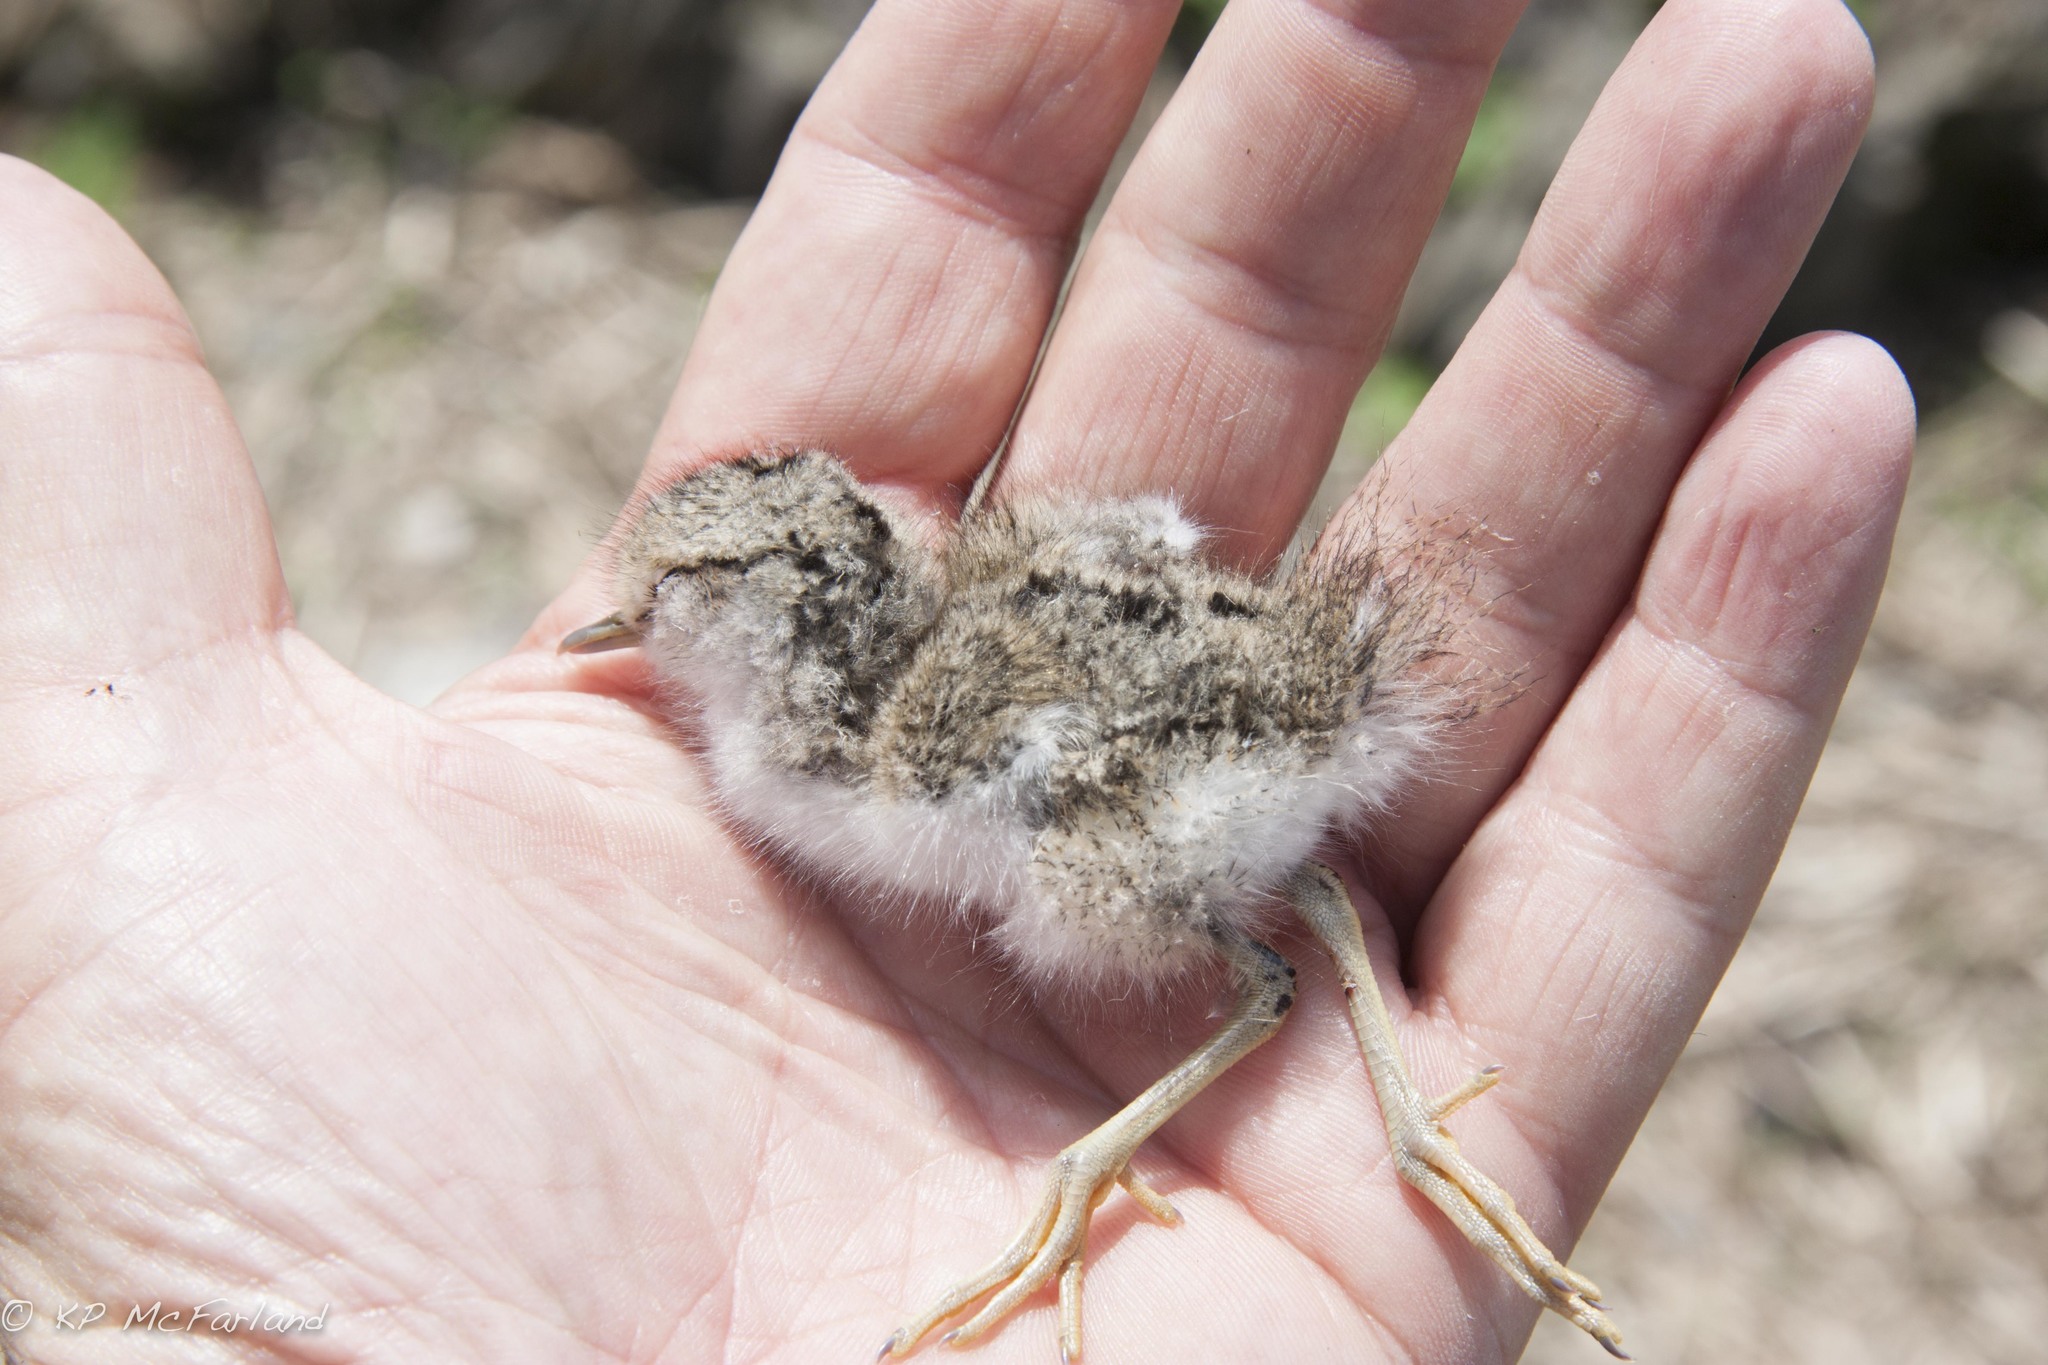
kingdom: Animalia
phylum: Chordata
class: Aves
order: Charadriiformes
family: Scolopacidae
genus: Actitis
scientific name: Actitis macularius
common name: Spotted sandpiper
